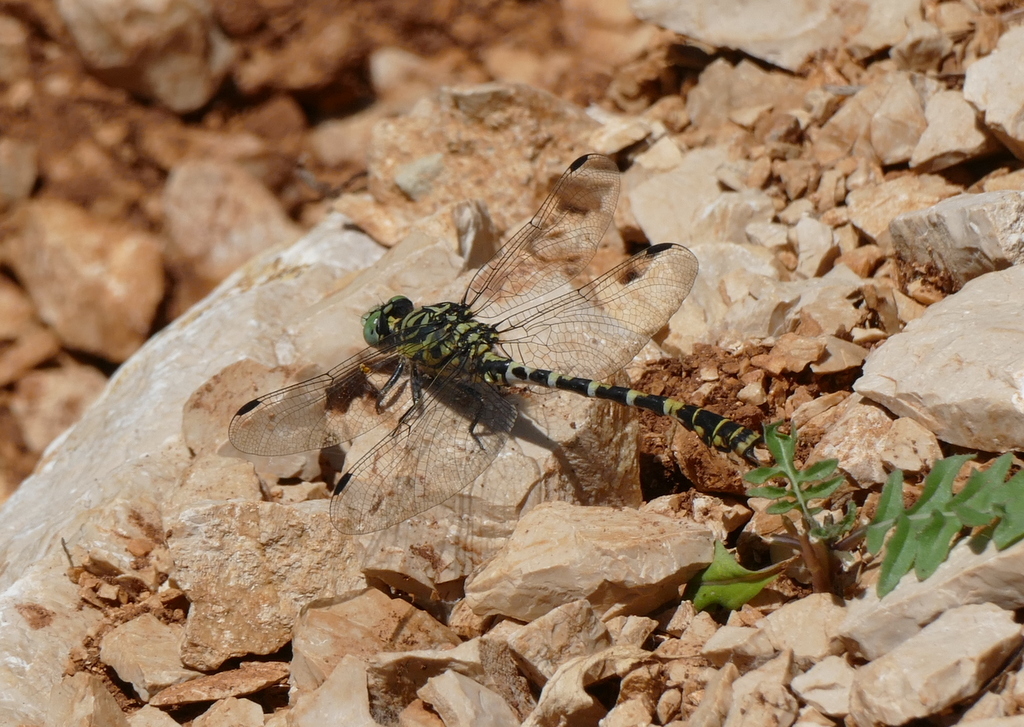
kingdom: Animalia
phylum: Arthropoda
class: Insecta
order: Odonata
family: Gomphidae
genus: Onychogomphus
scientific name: Onychogomphus forcipatus
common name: Small pincertail
